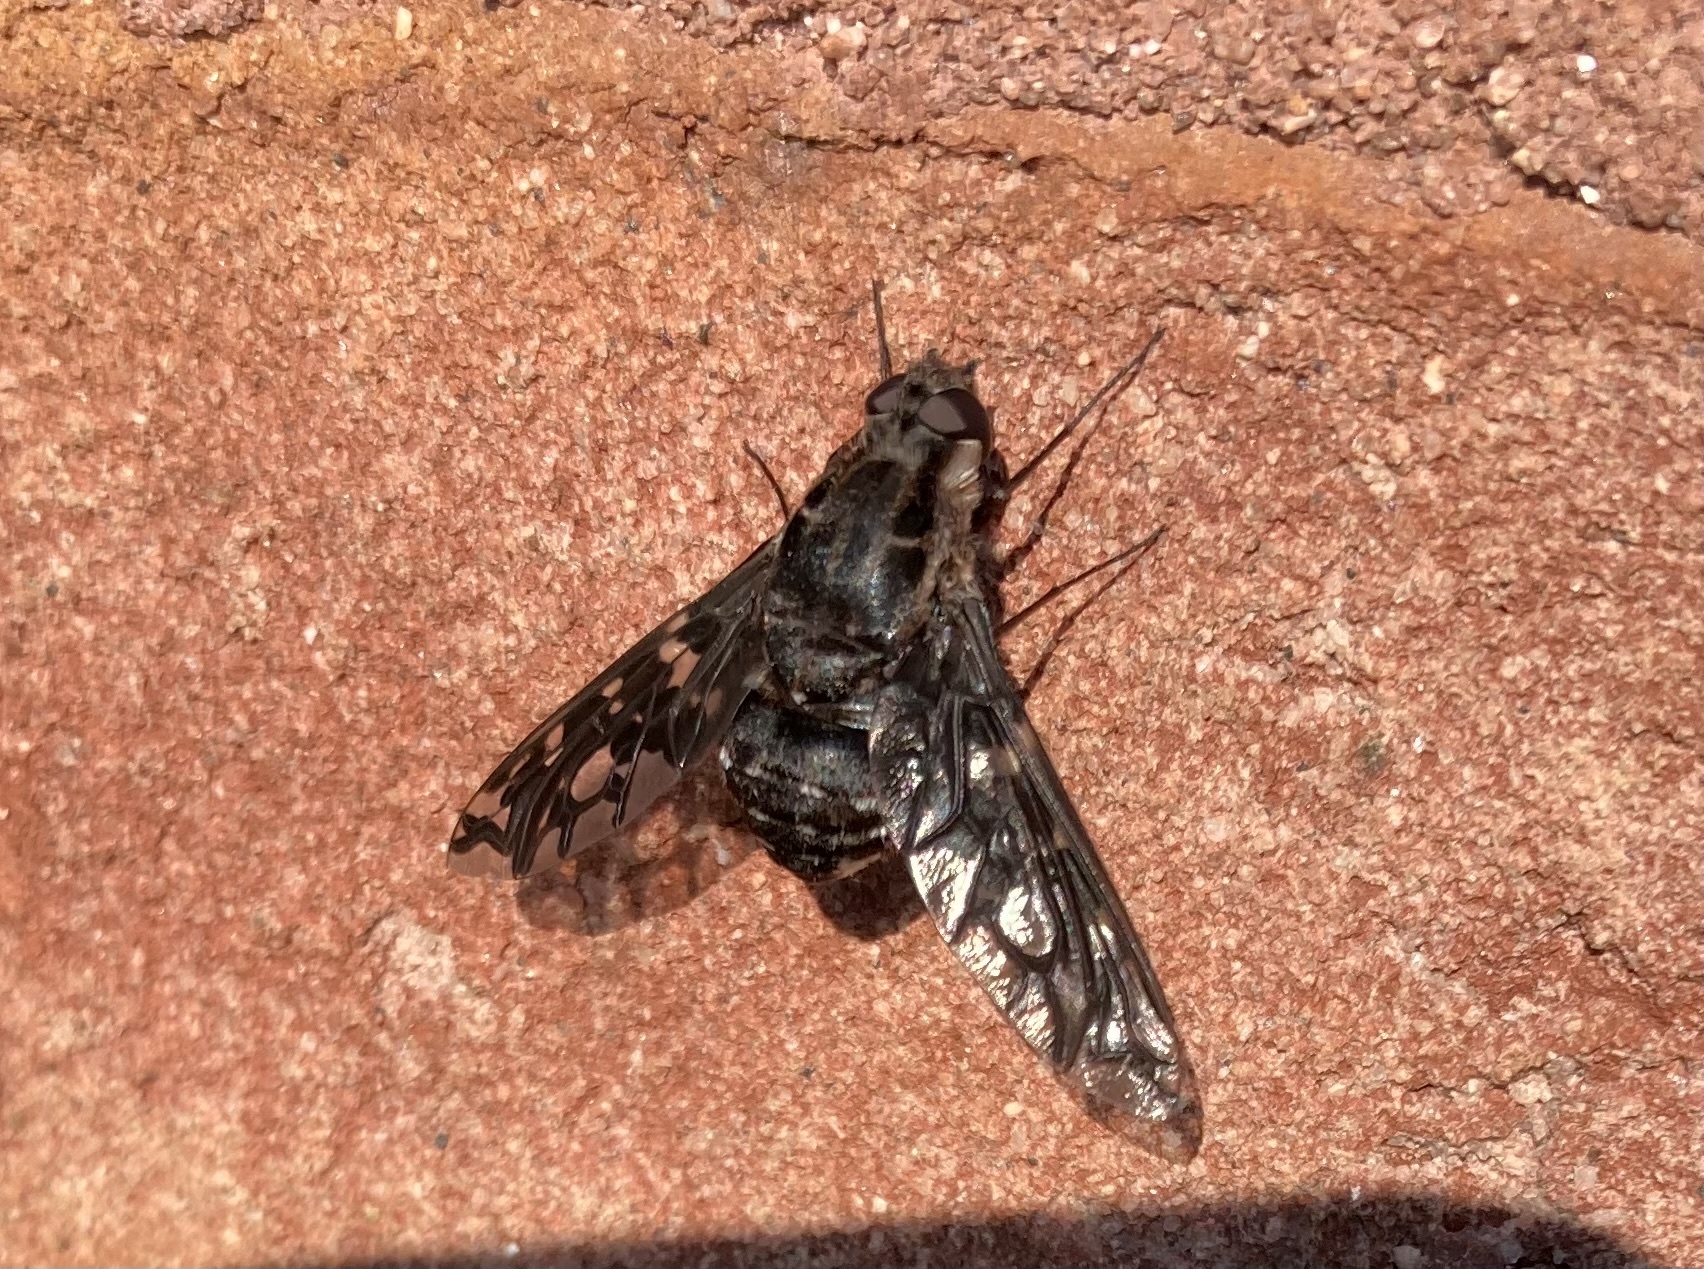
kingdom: Animalia
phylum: Arthropoda
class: Insecta
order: Diptera
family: Bombyliidae
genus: Xenox
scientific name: Xenox tigrinus
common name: Tiger bee fly
